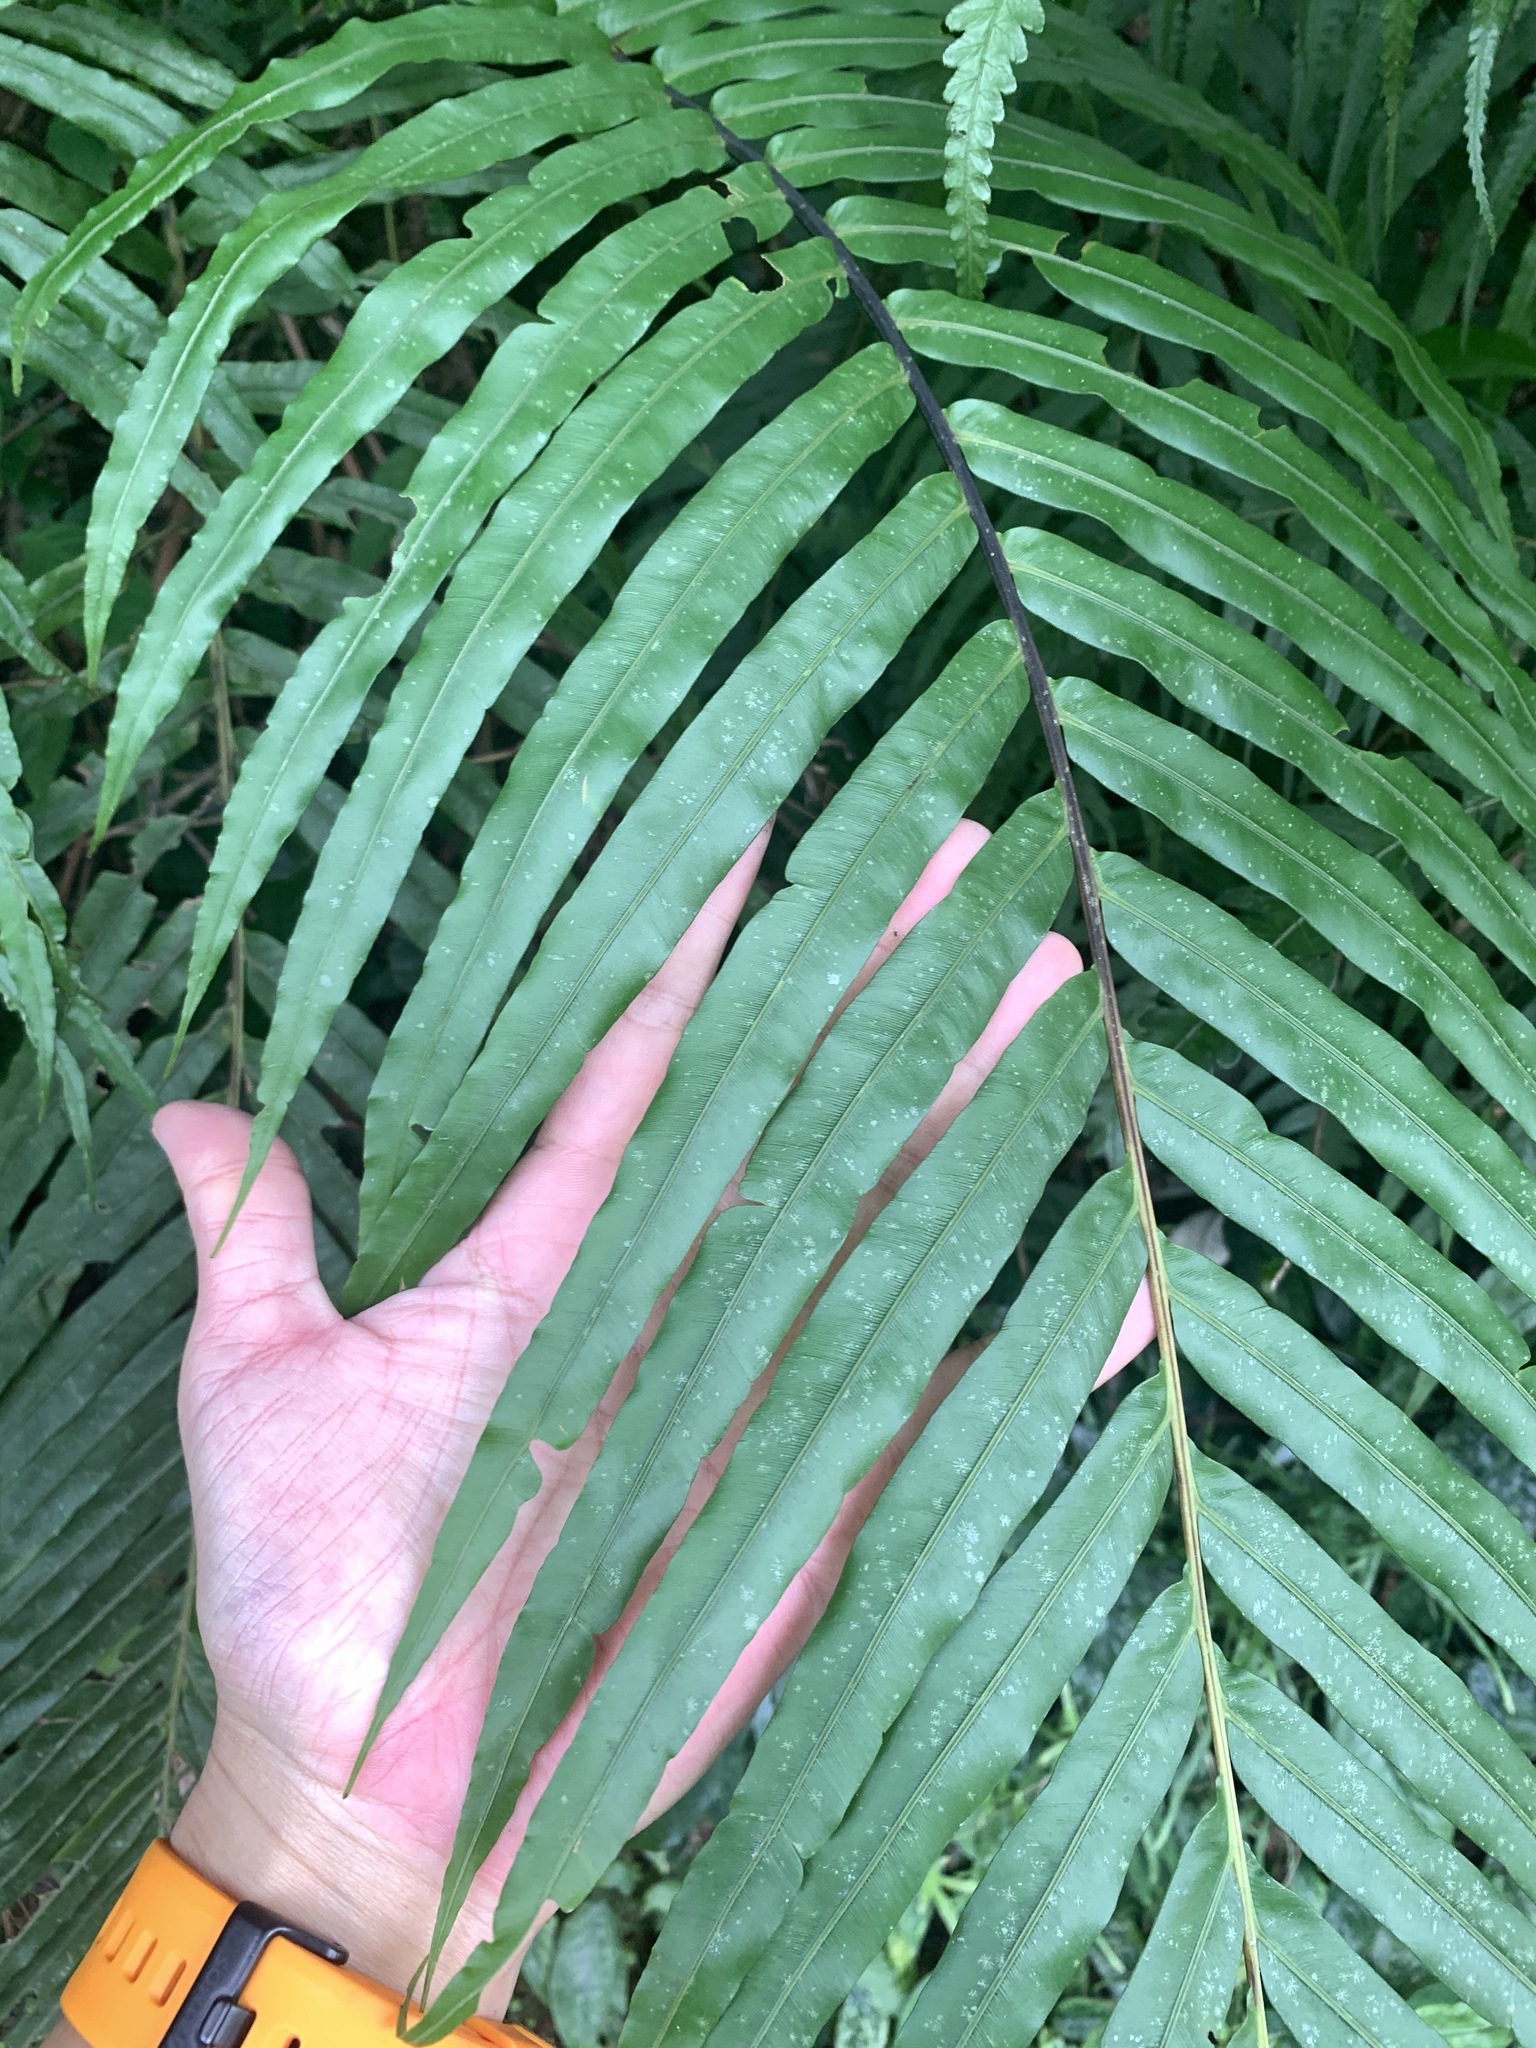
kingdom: Plantae
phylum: Tracheophyta
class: Polypodiopsida
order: Polypodiales
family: Blechnaceae
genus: Blechnopsis
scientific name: Blechnopsis orientalis
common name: Oriental blechnum
